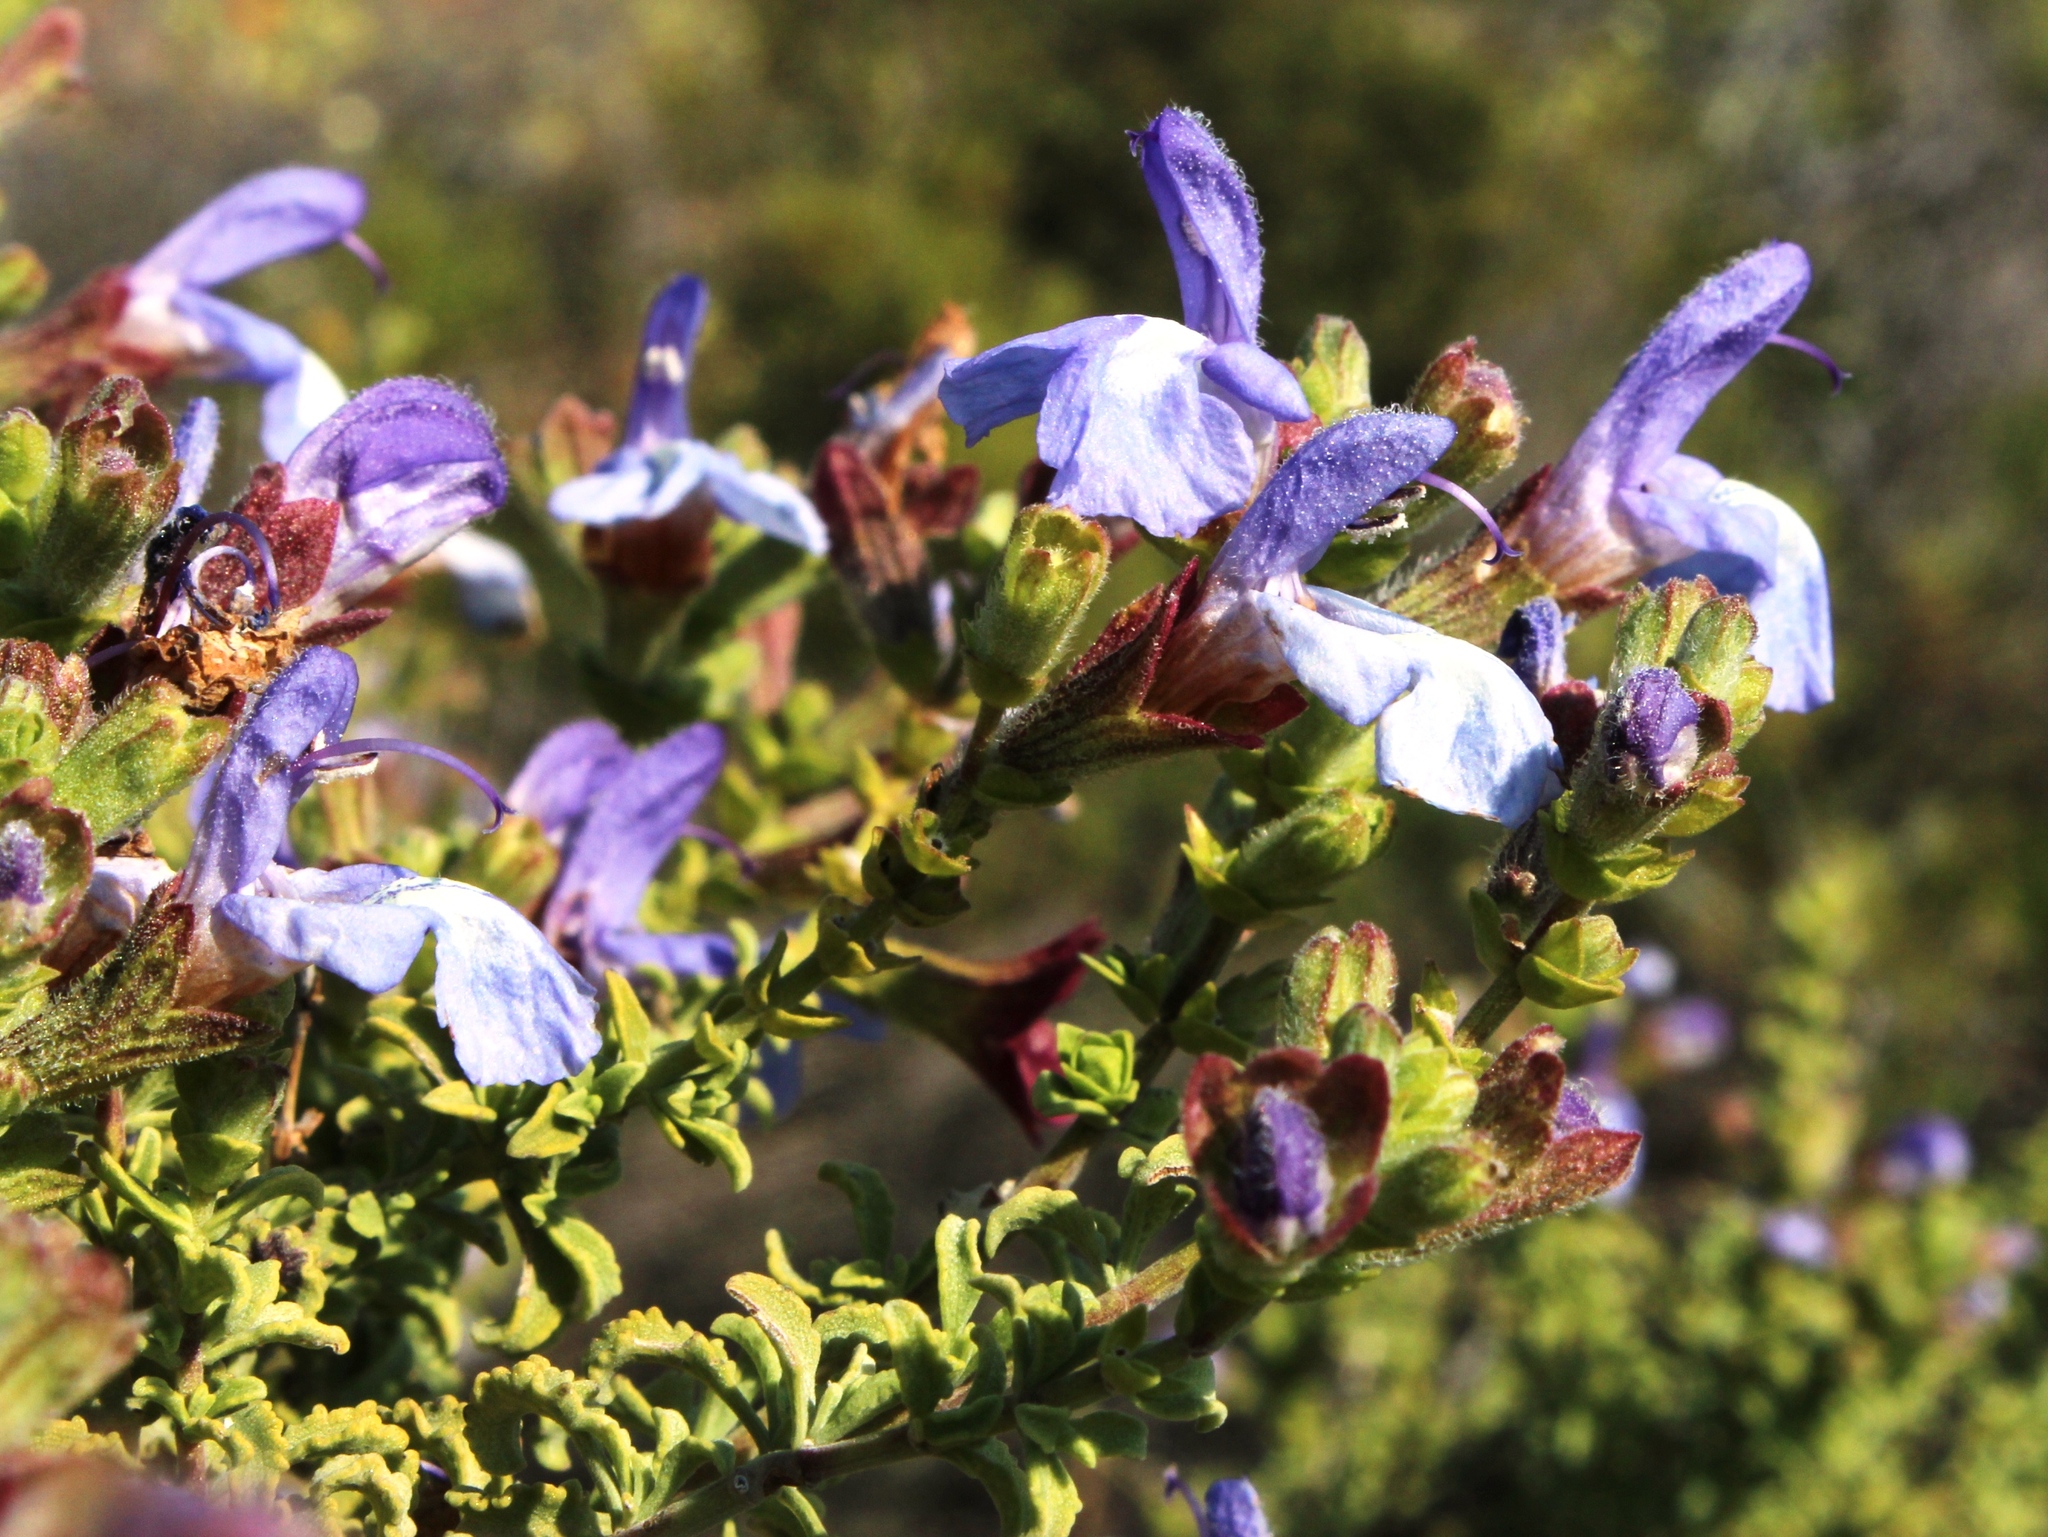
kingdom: Plantae
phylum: Tracheophyta
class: Magnoliopsida
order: Lamiales
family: Lamiaceae
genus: Salvia
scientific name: Salvia dentata
